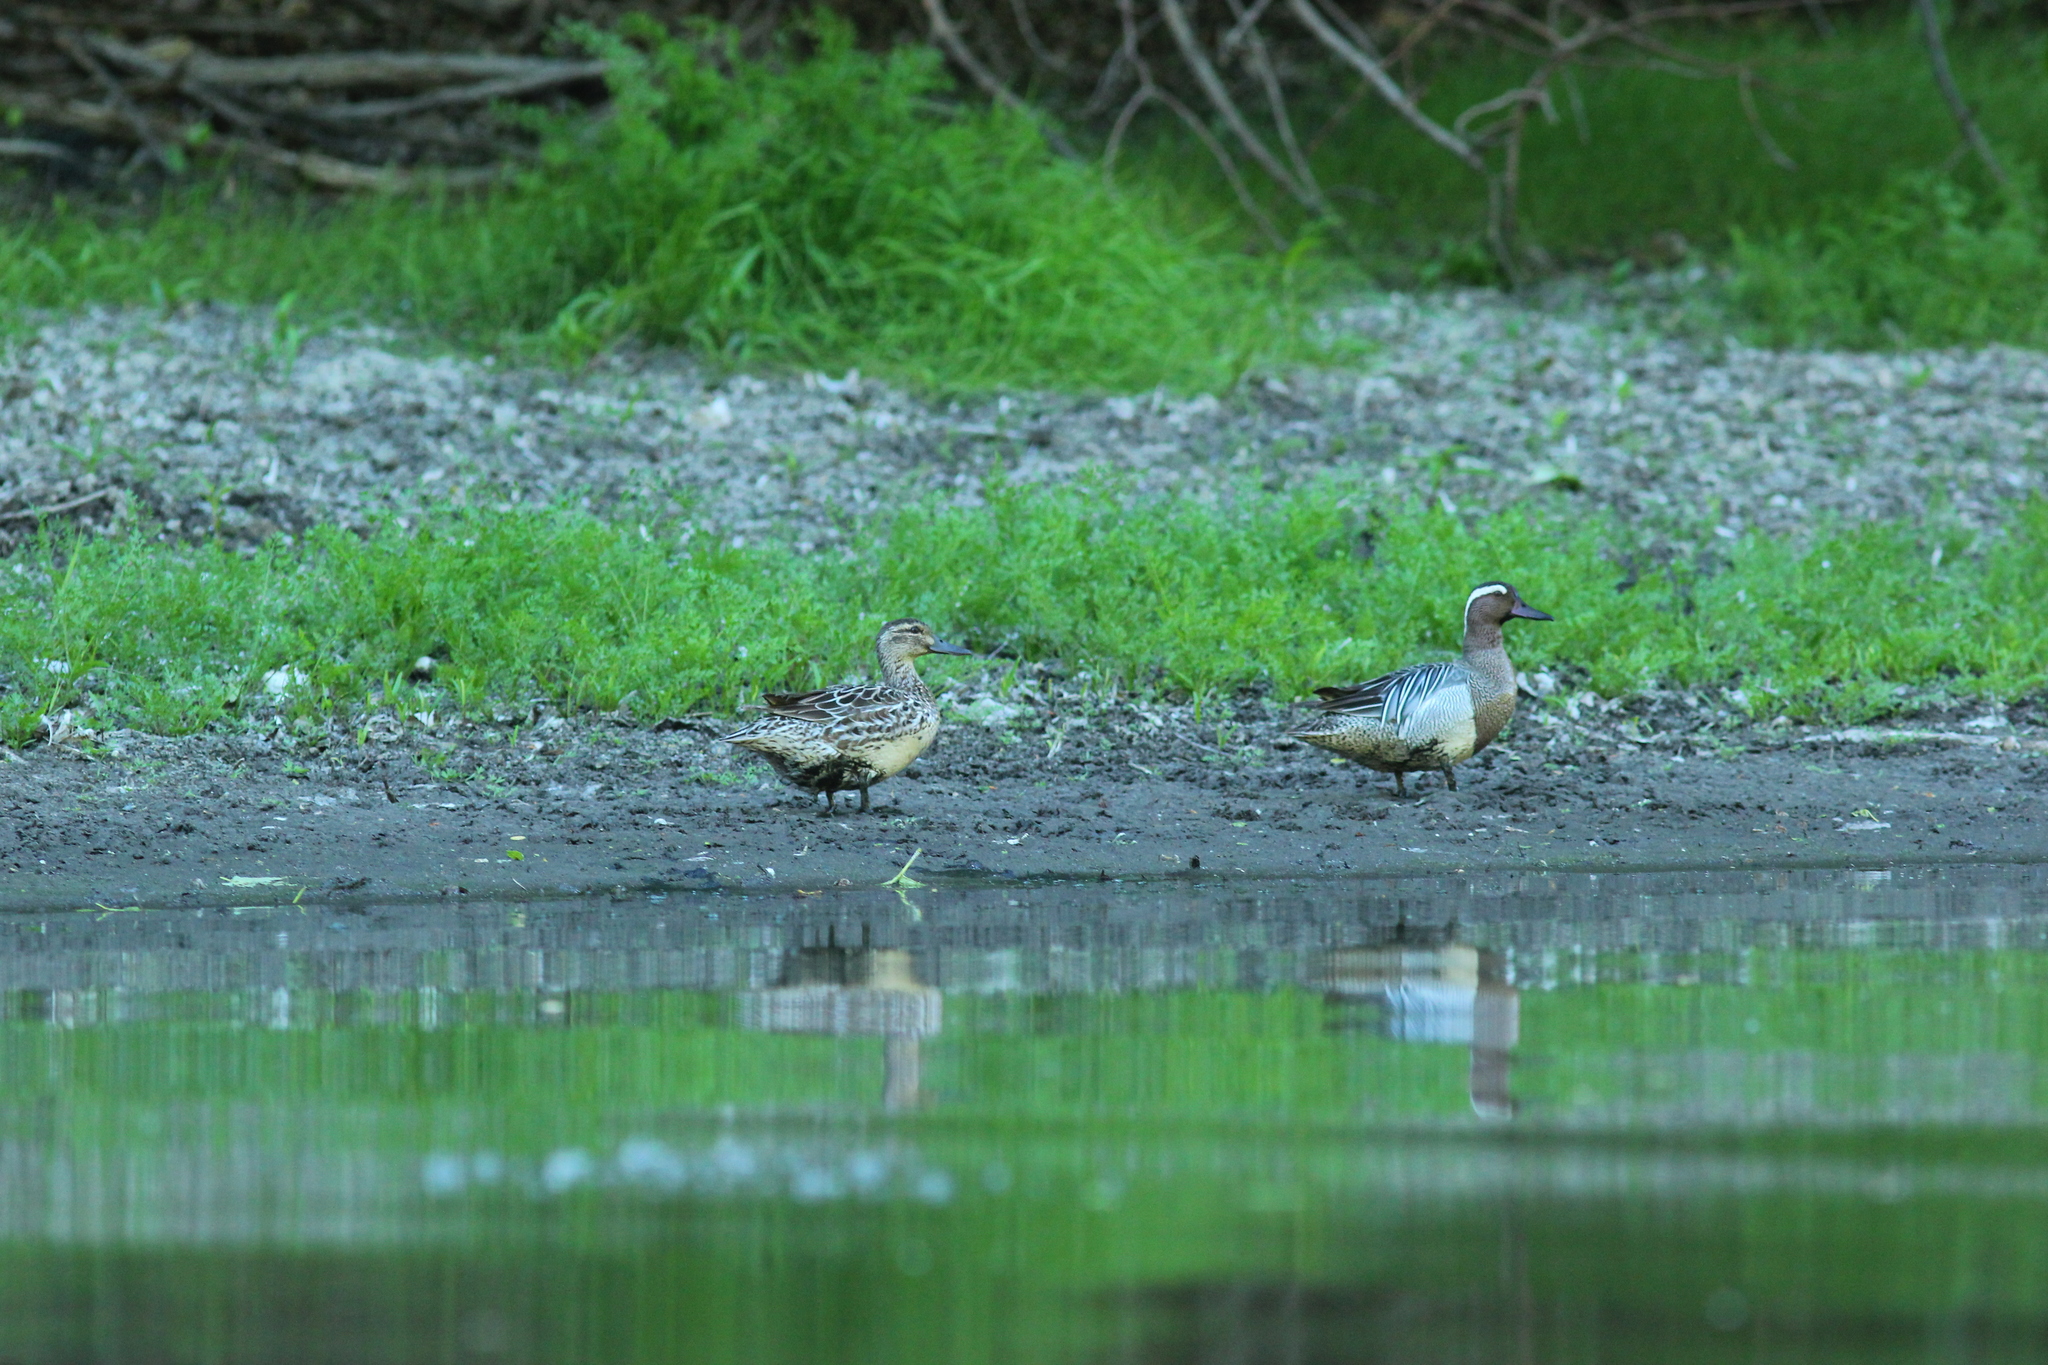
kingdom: Animalia
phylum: Chordata
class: Aves
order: Anseriformes
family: Anatidae
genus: Spatula
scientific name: Spatula querquedula
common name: Garganey
